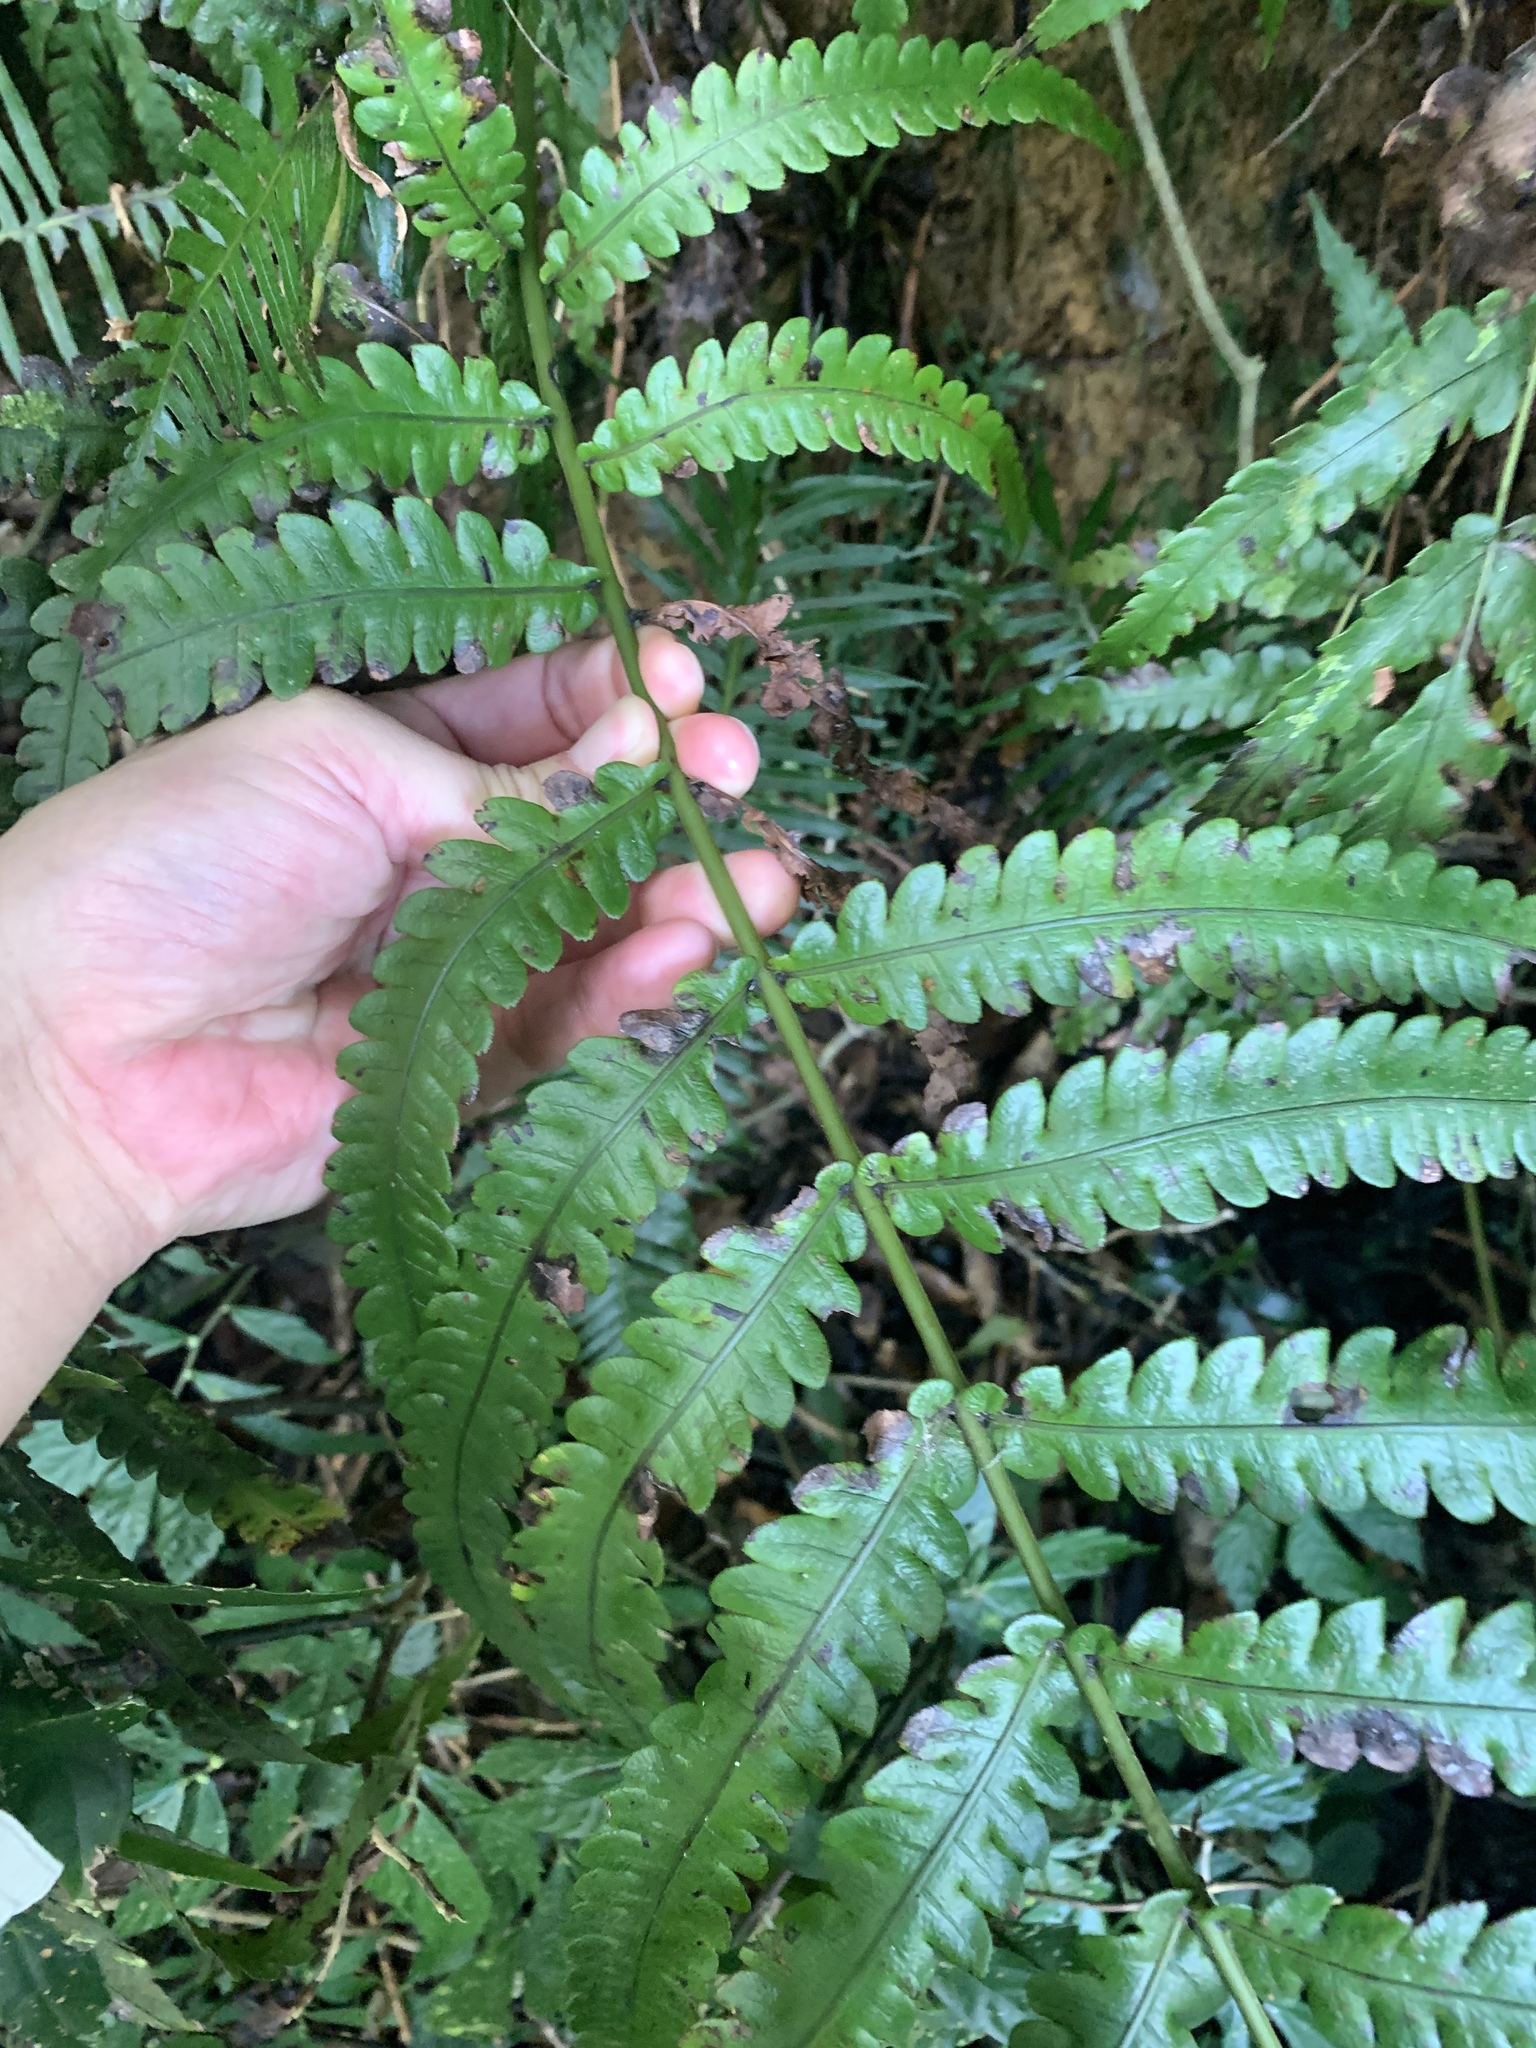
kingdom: Plantae
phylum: Tracheophyta
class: Polypodiopsida
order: Polypodiales
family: Blechnaceae
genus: Woodwardia
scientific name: Woodwardia japonica
